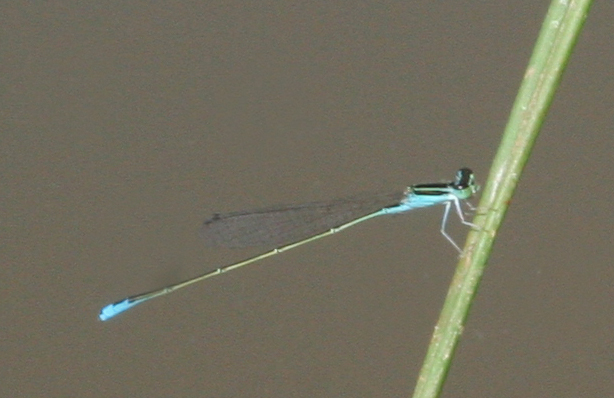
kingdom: Animalia
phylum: Arthropoda
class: Insecta
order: Odonata
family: Coenagrionidae
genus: Aciagrion
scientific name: Aciagrion borneense
